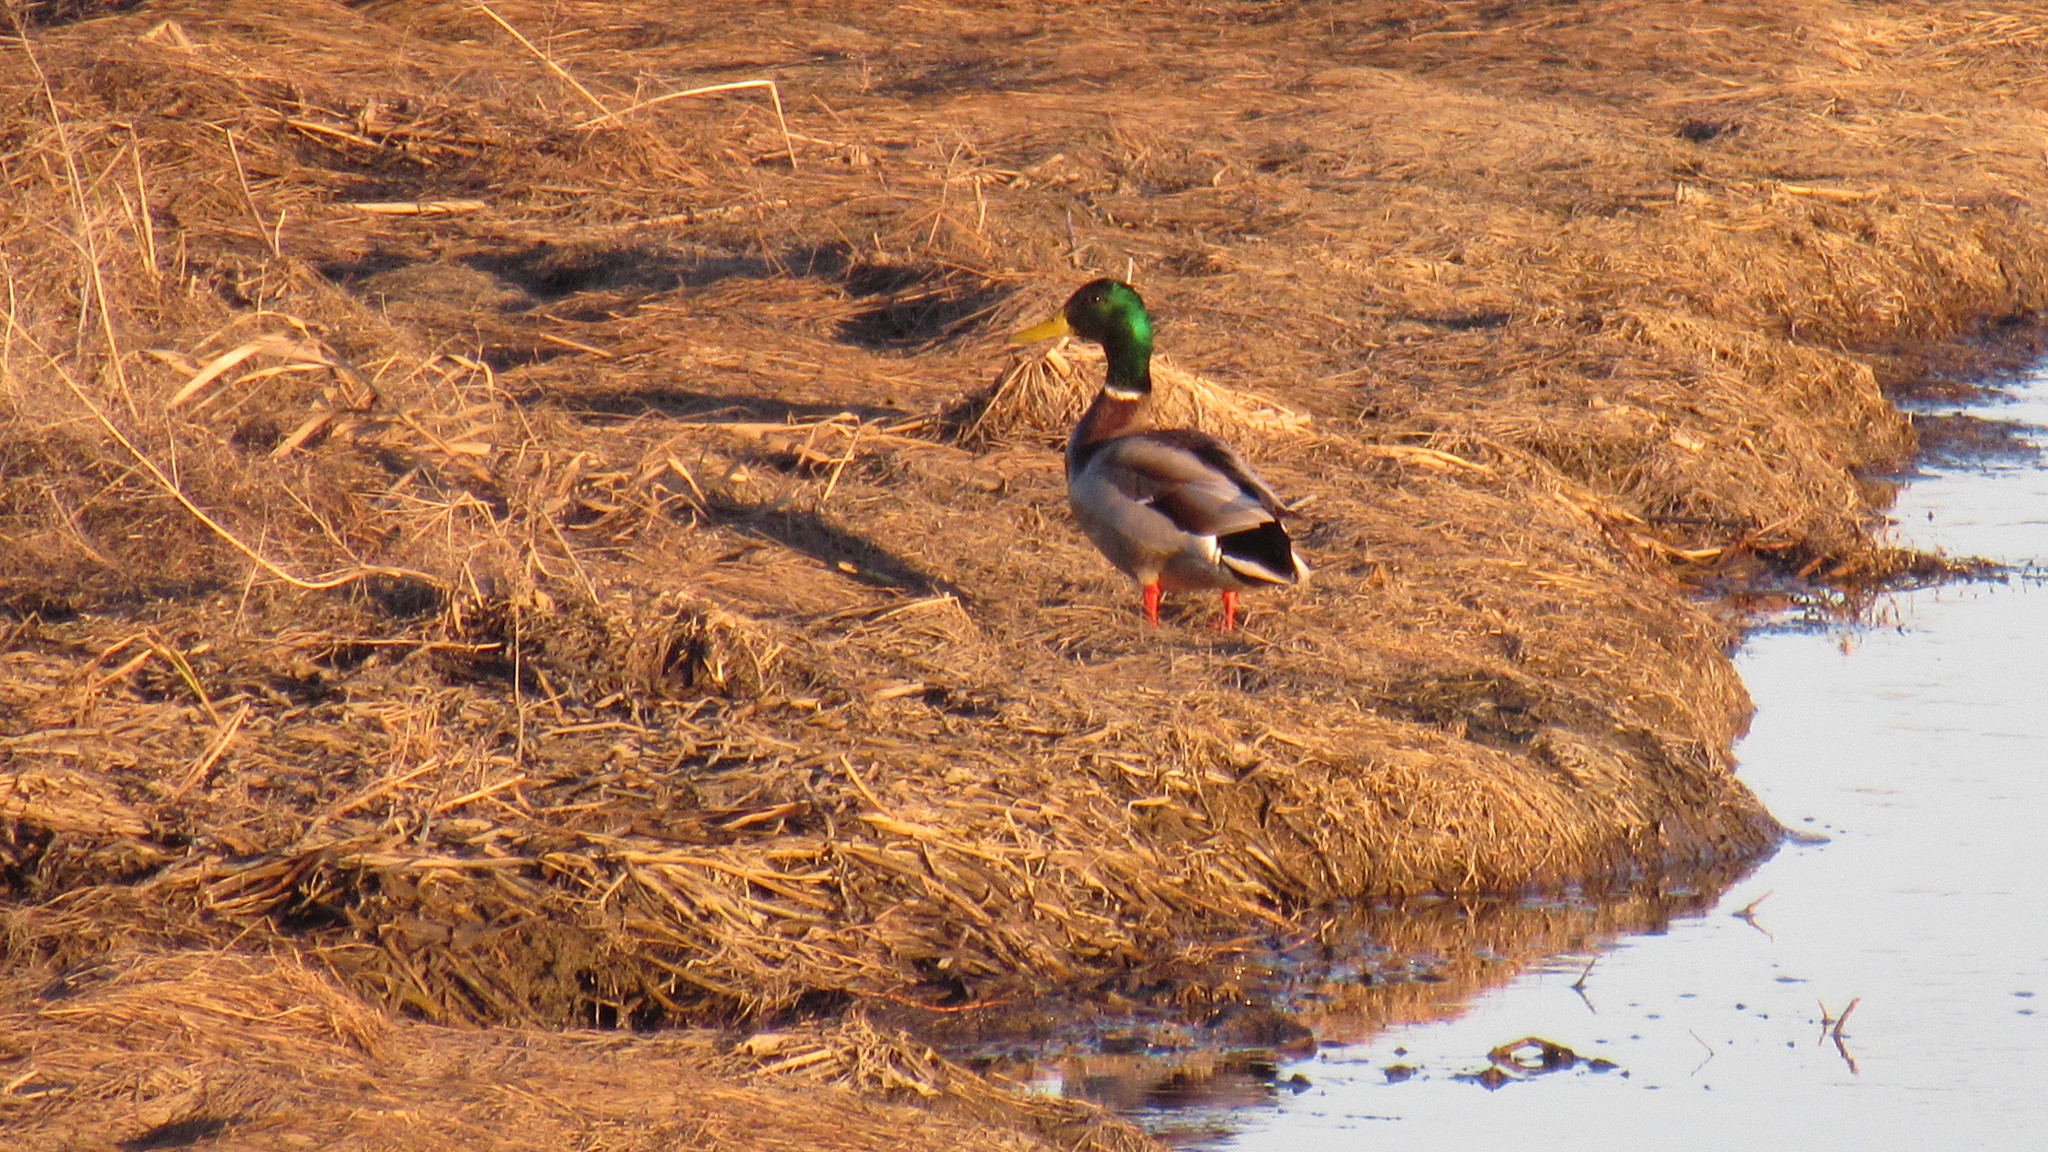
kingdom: Animalia
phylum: Chordata
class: Aves
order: Anseriformes
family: Anatidae
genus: Anas
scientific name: Anas platyrhynchos
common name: Mallard
